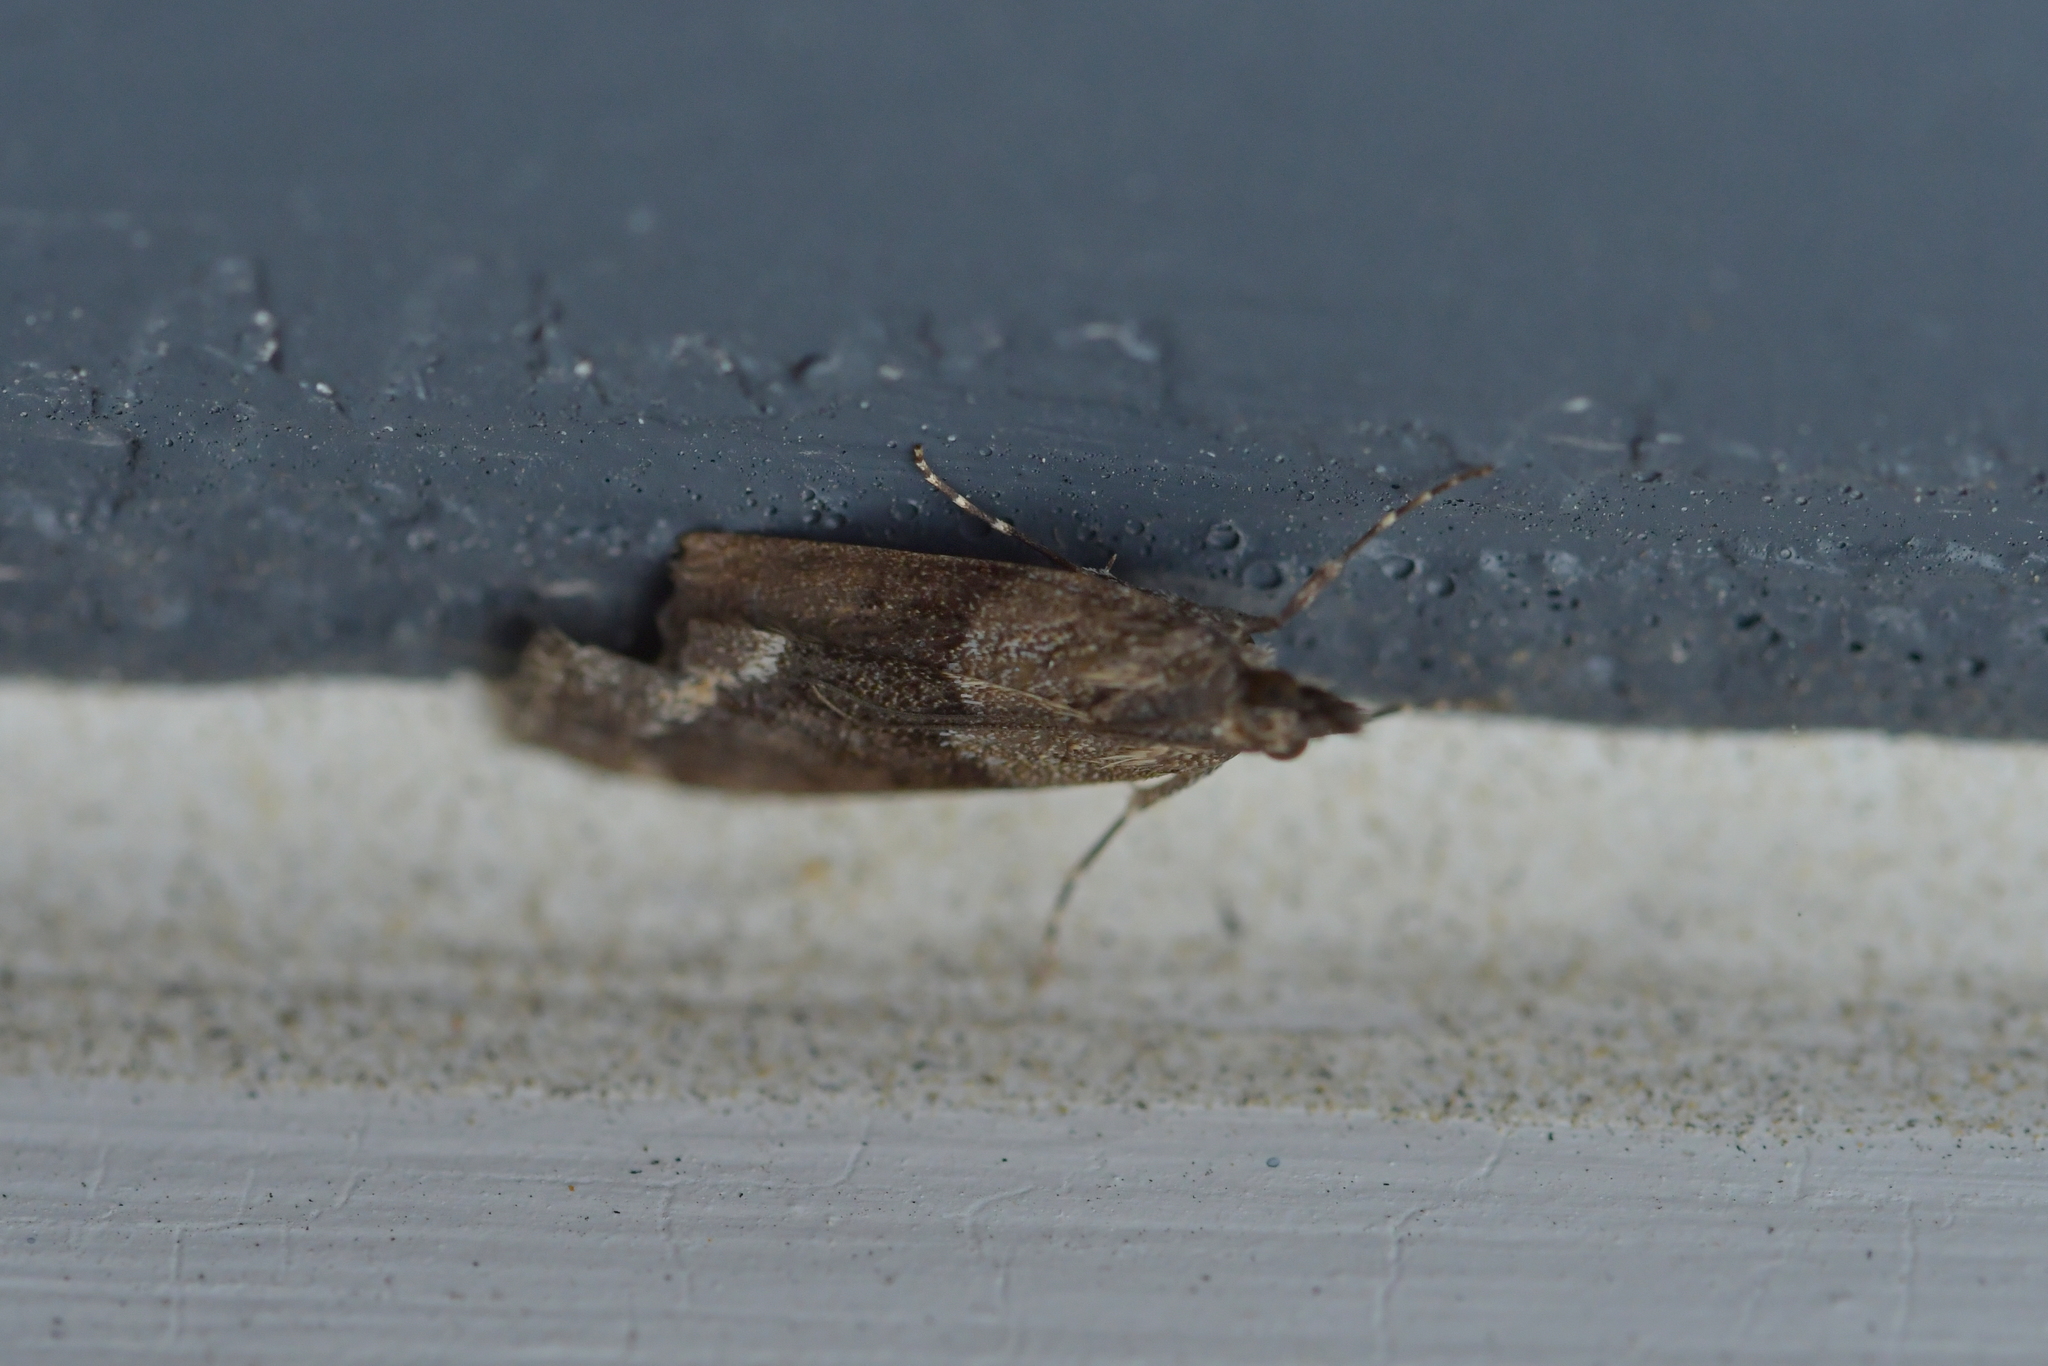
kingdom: Animalia
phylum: Arthropoda
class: Insecta
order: Lepidoptera
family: Crambidae
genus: Eudonia
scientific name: Eudonia submarginalis
